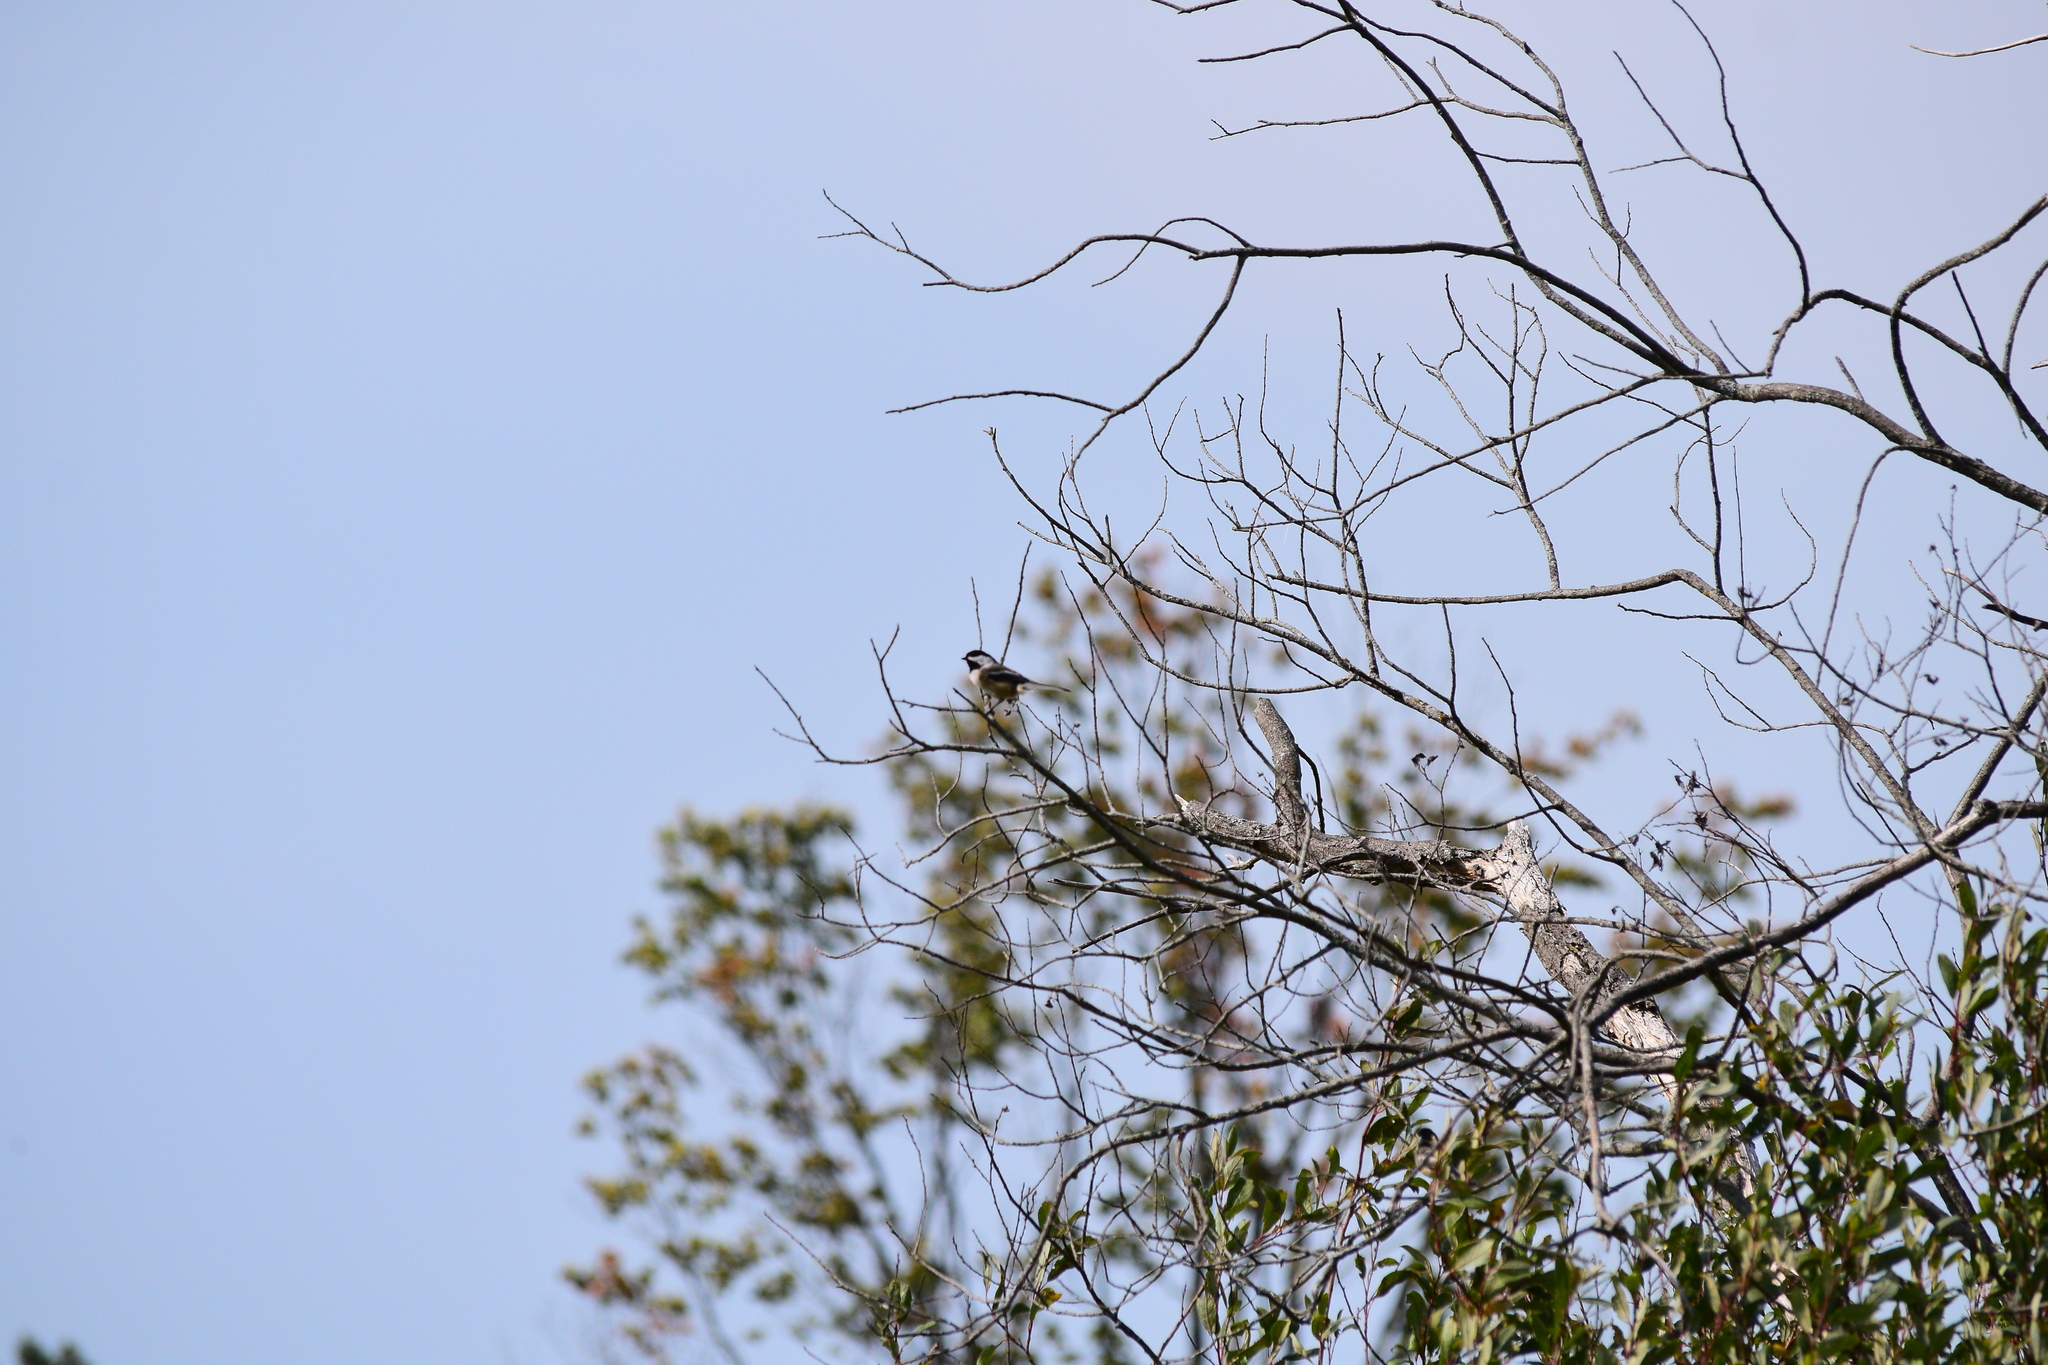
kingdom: Animalia
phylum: Chordata
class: Aves
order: Passeriformes
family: Paridae
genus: Poecile
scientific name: Poecile atricapillus
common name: Black-capped chickadee
